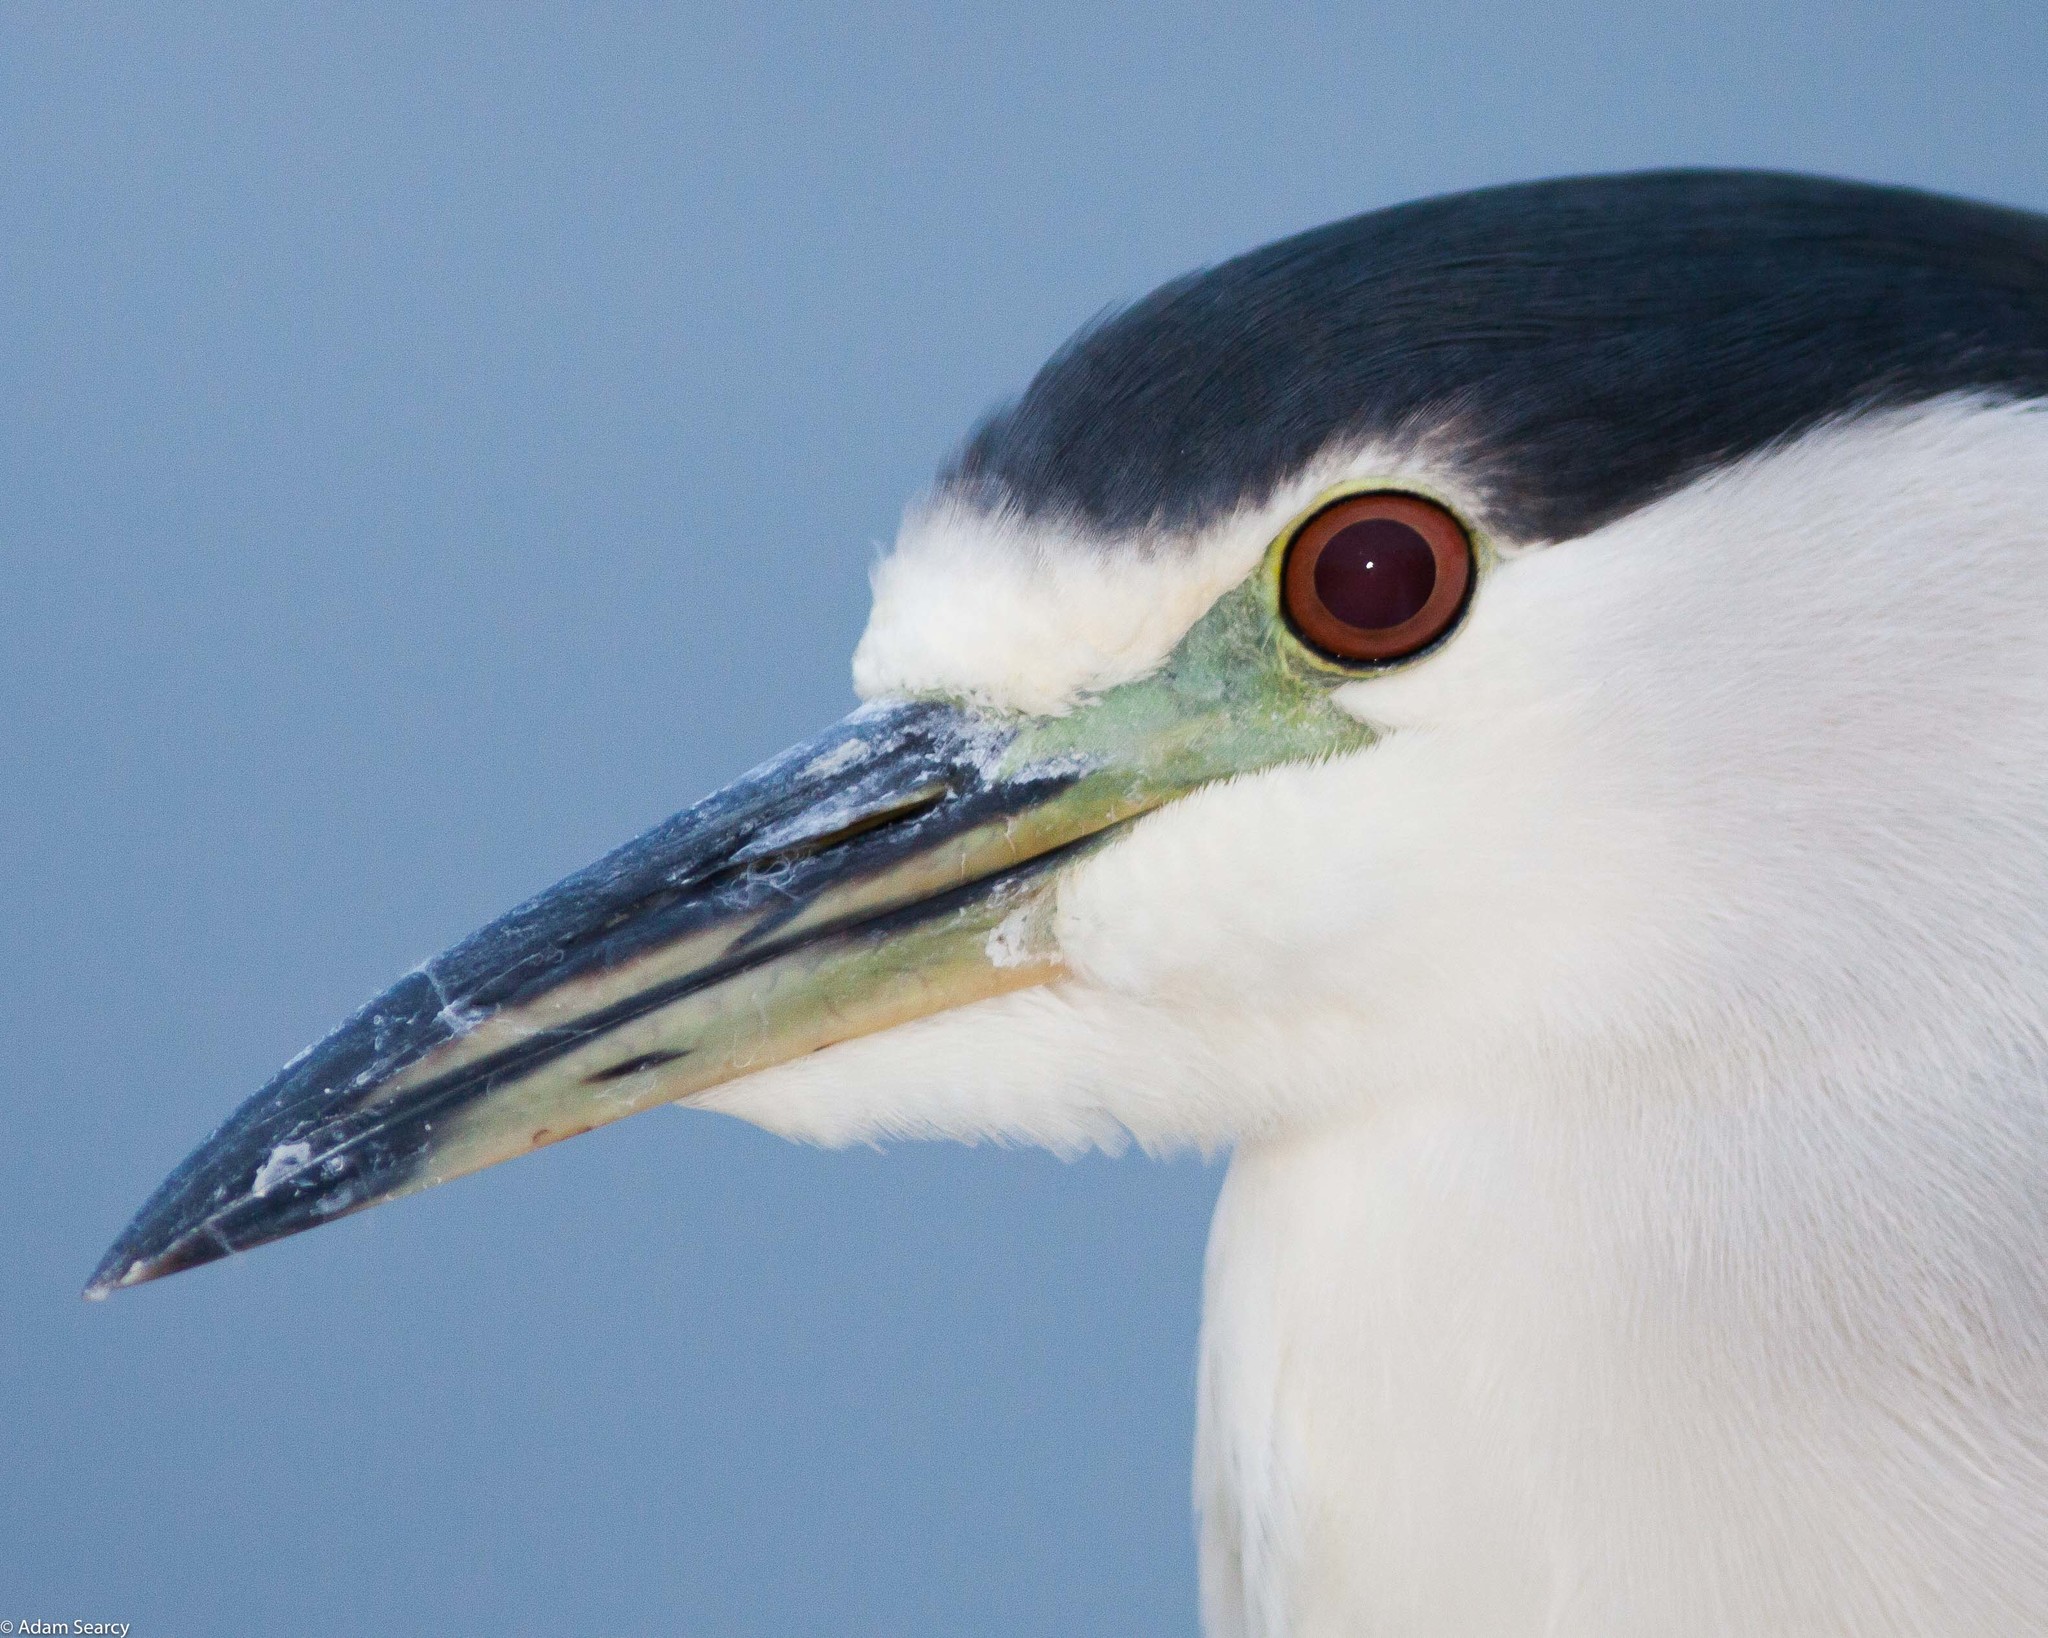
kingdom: Animalia
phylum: Chordata
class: Aves
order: Pelecaniformes
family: Ardeidae
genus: Nycticorax
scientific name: Nycticorax nycticorax
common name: Black-crowned night heron
